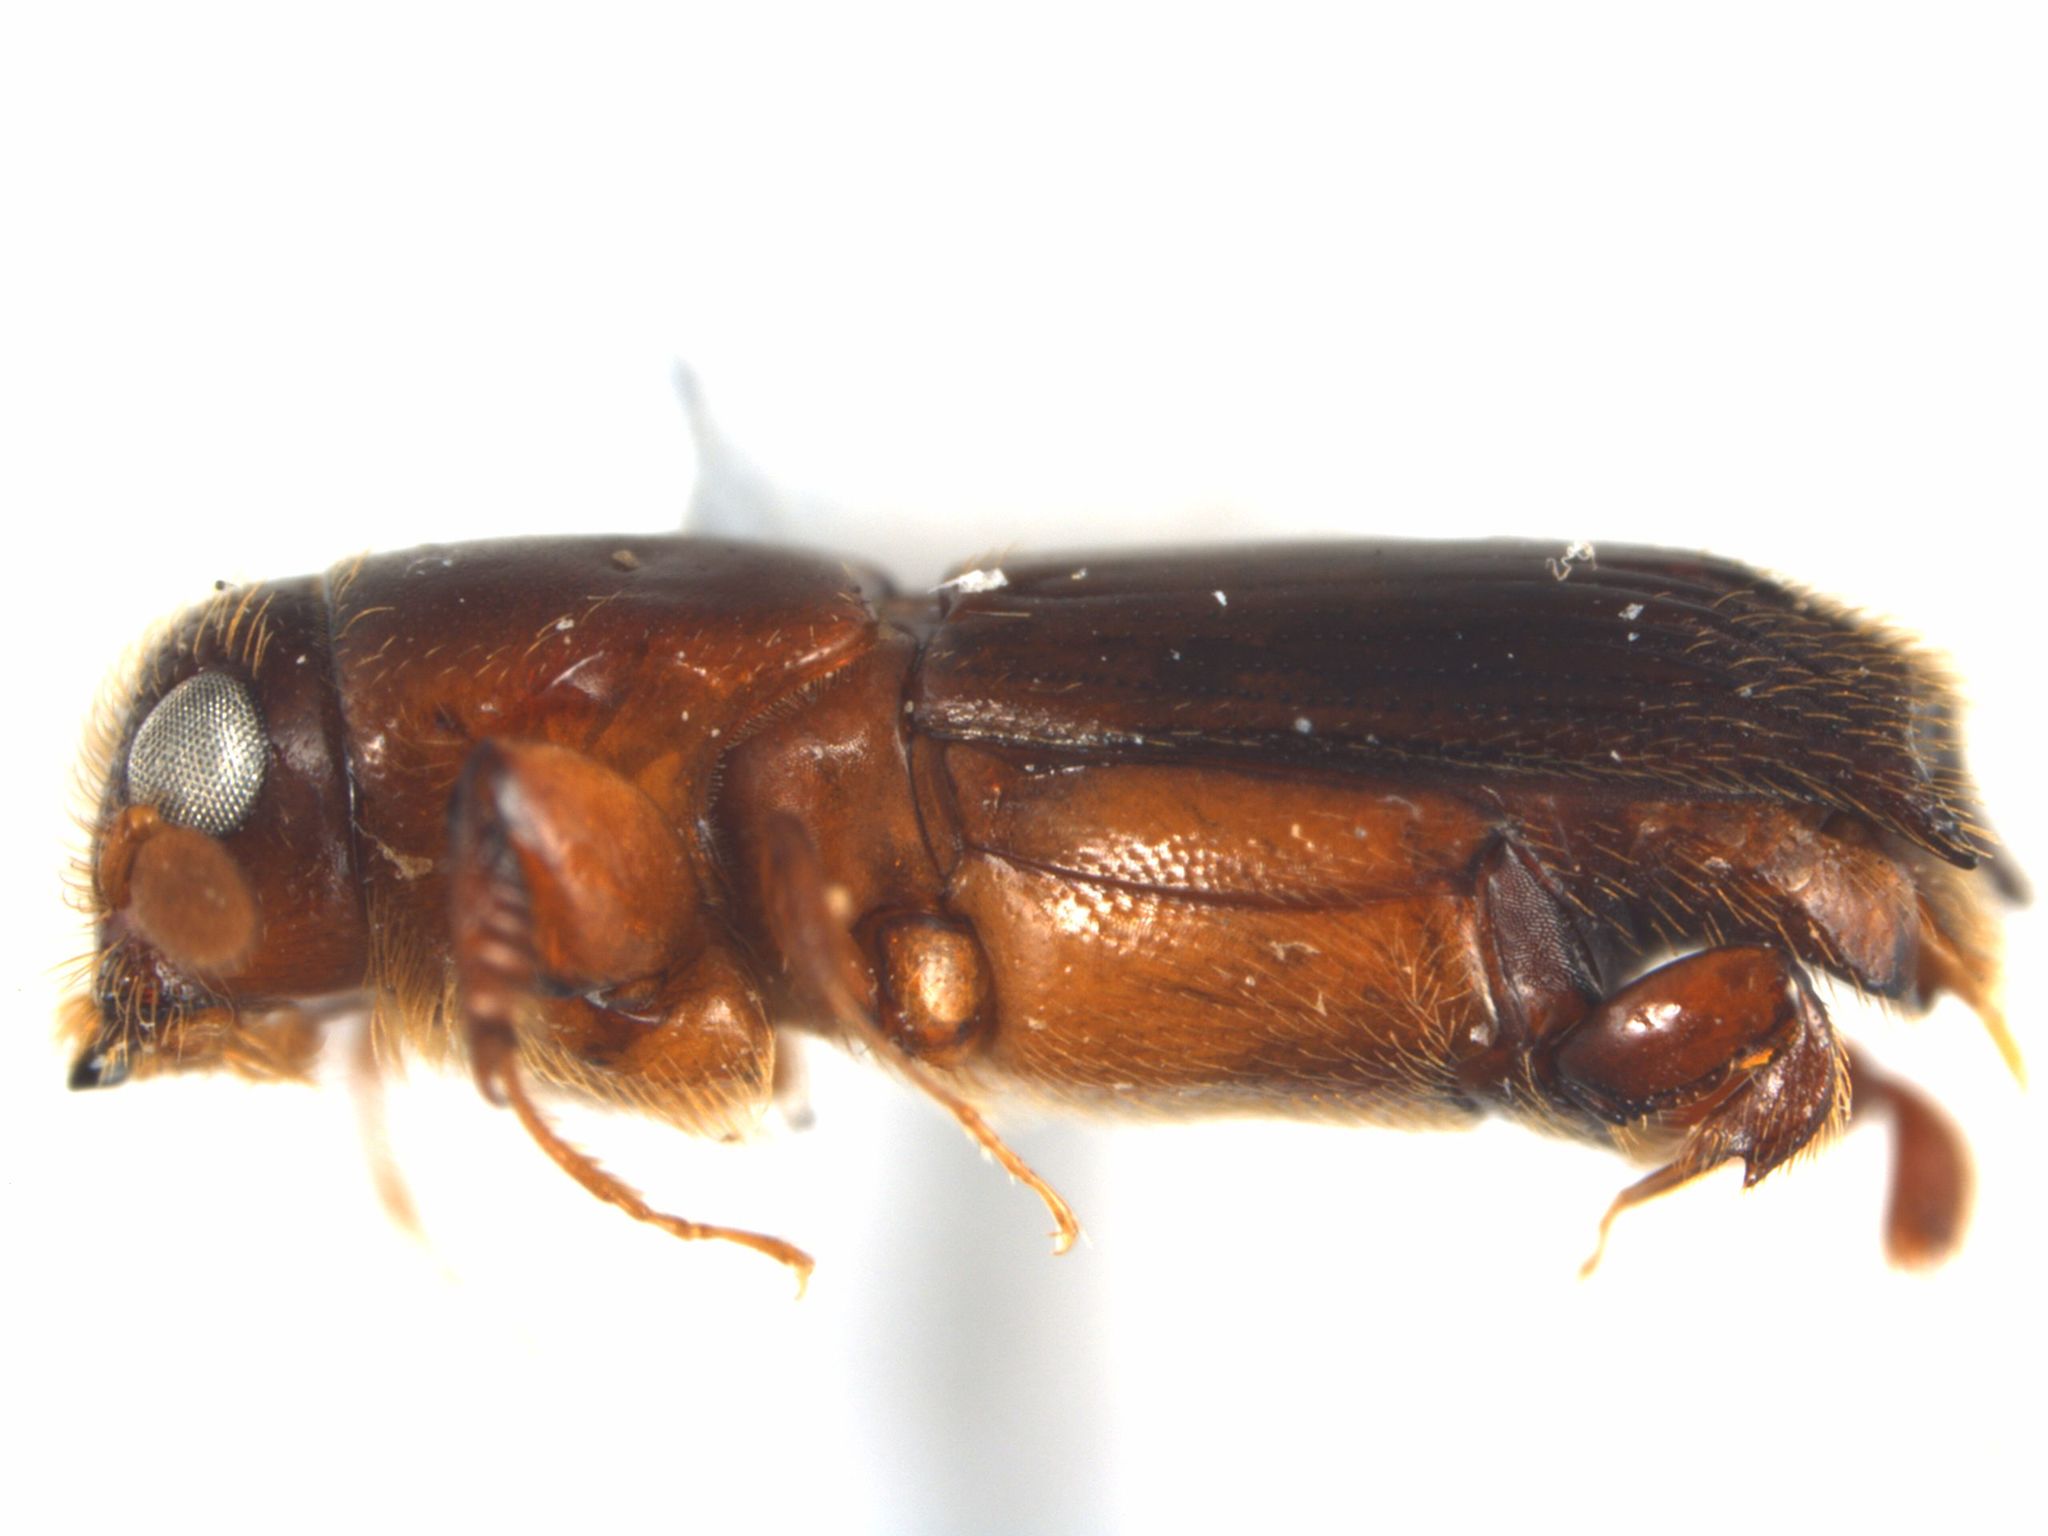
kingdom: Animalia
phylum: Arthropoda
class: Insecta
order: Coleoptera
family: Curculionidae
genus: Crossotarsus
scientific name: Crossotarsus externedentatus
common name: Beetle
